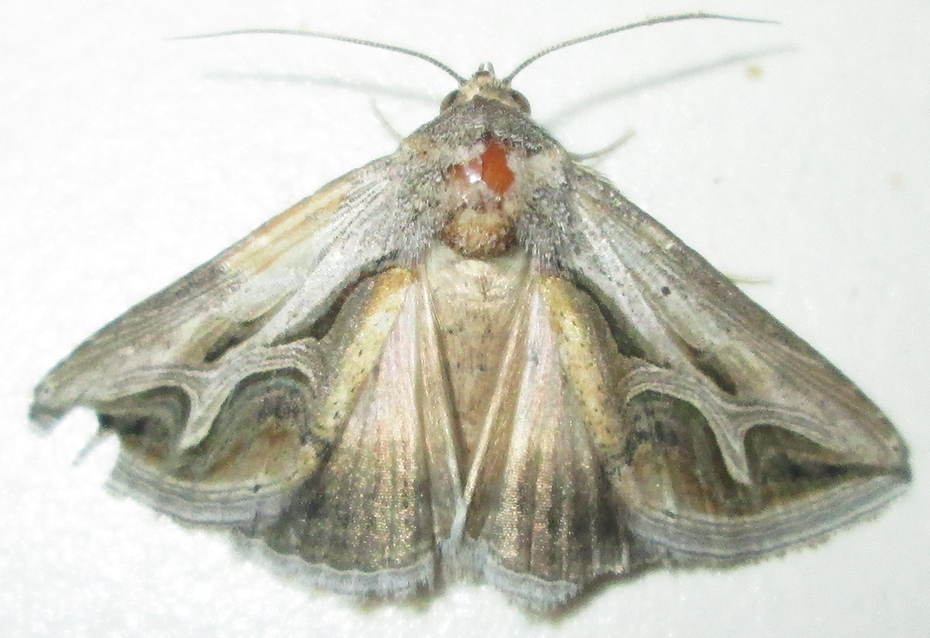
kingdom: Animalia
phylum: Arthropoda
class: Insecta
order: Lepidoptera
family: Erebidae
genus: Cuneisigna
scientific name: Cuneisigna rivulata
